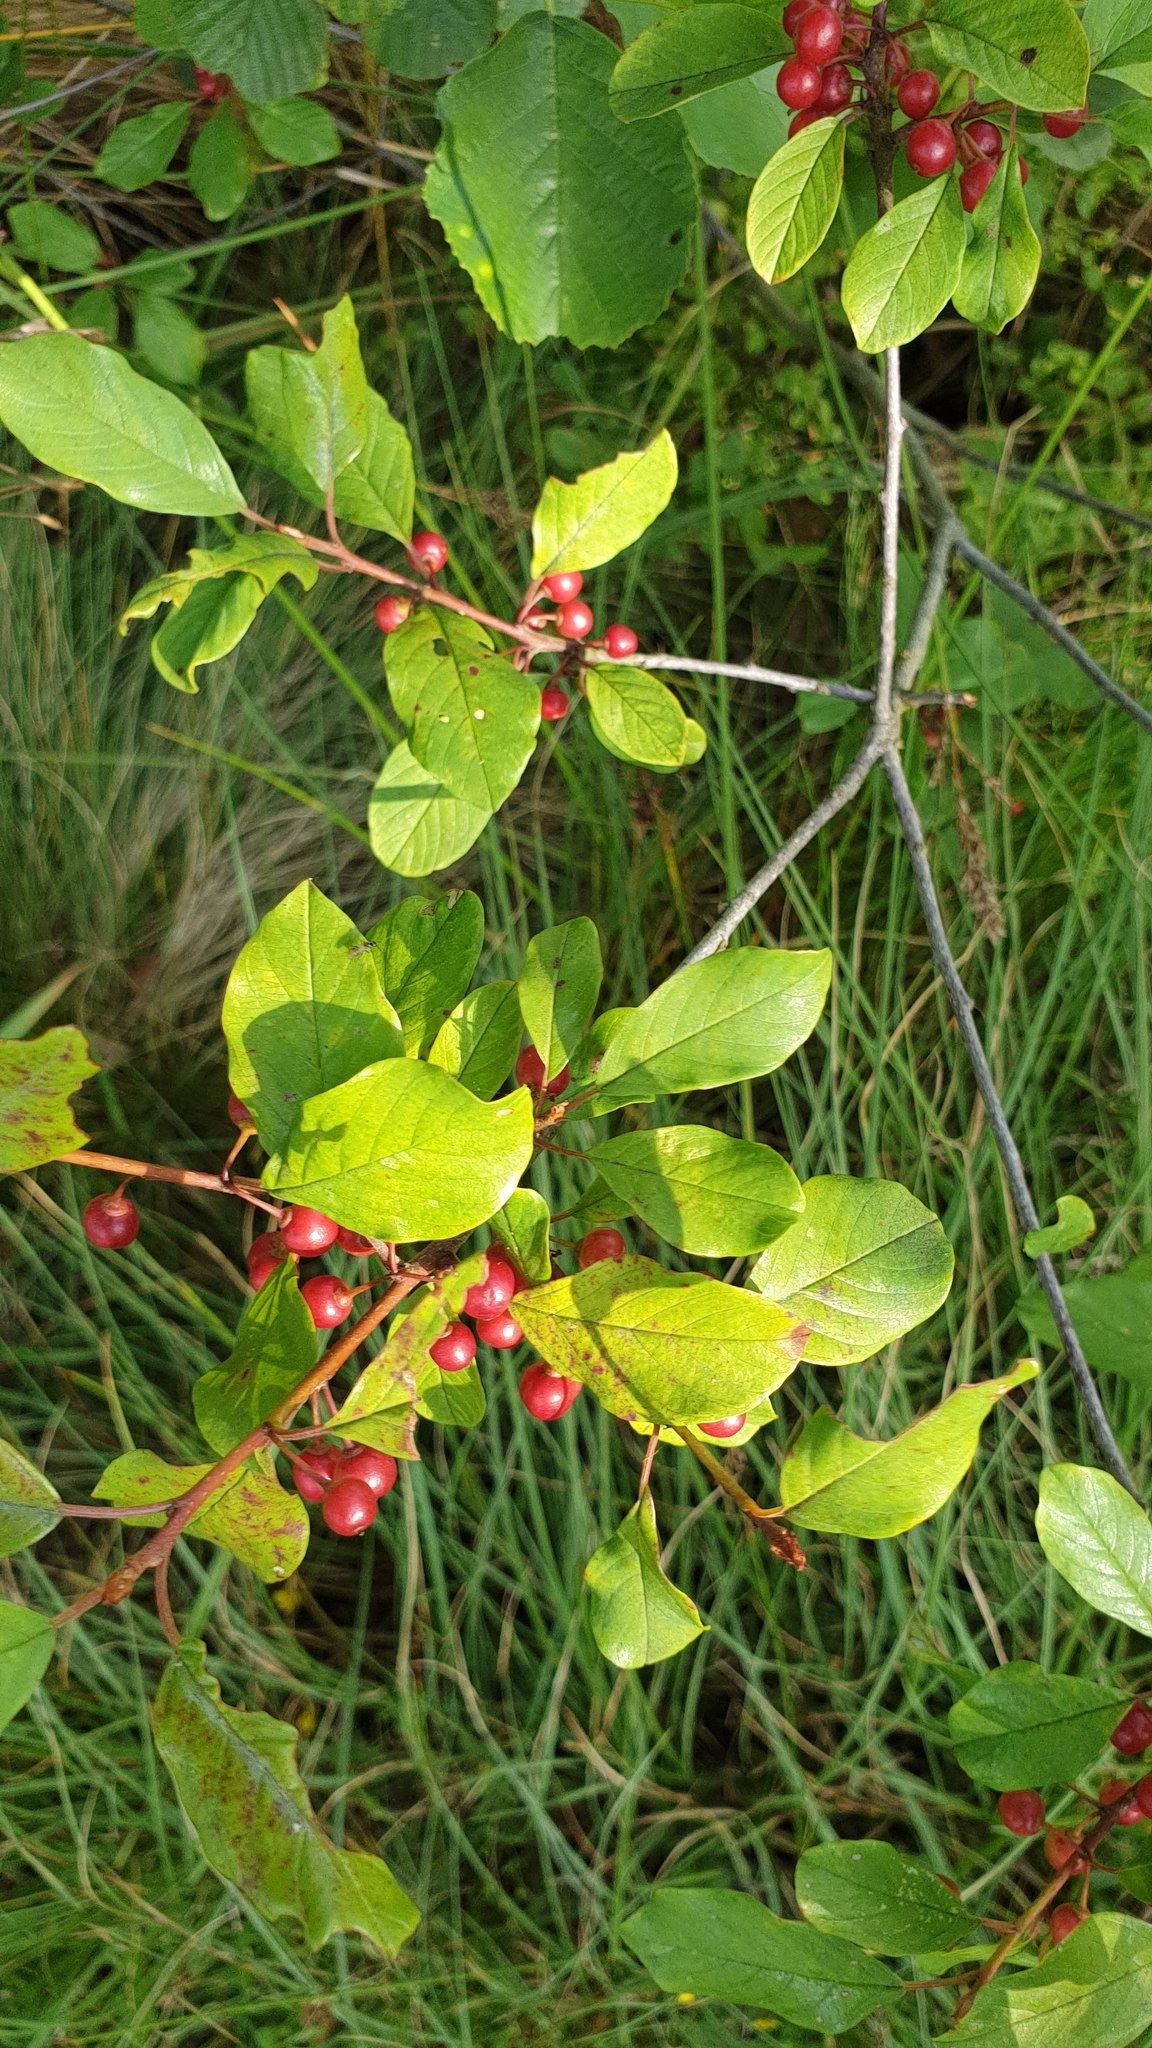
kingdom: Plantae
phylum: Tracheophyta
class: Magnoliopsida
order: Rosales
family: Rhamnaceae
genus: Frangula
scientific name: Frangula alnus
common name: Alder buckthorn
